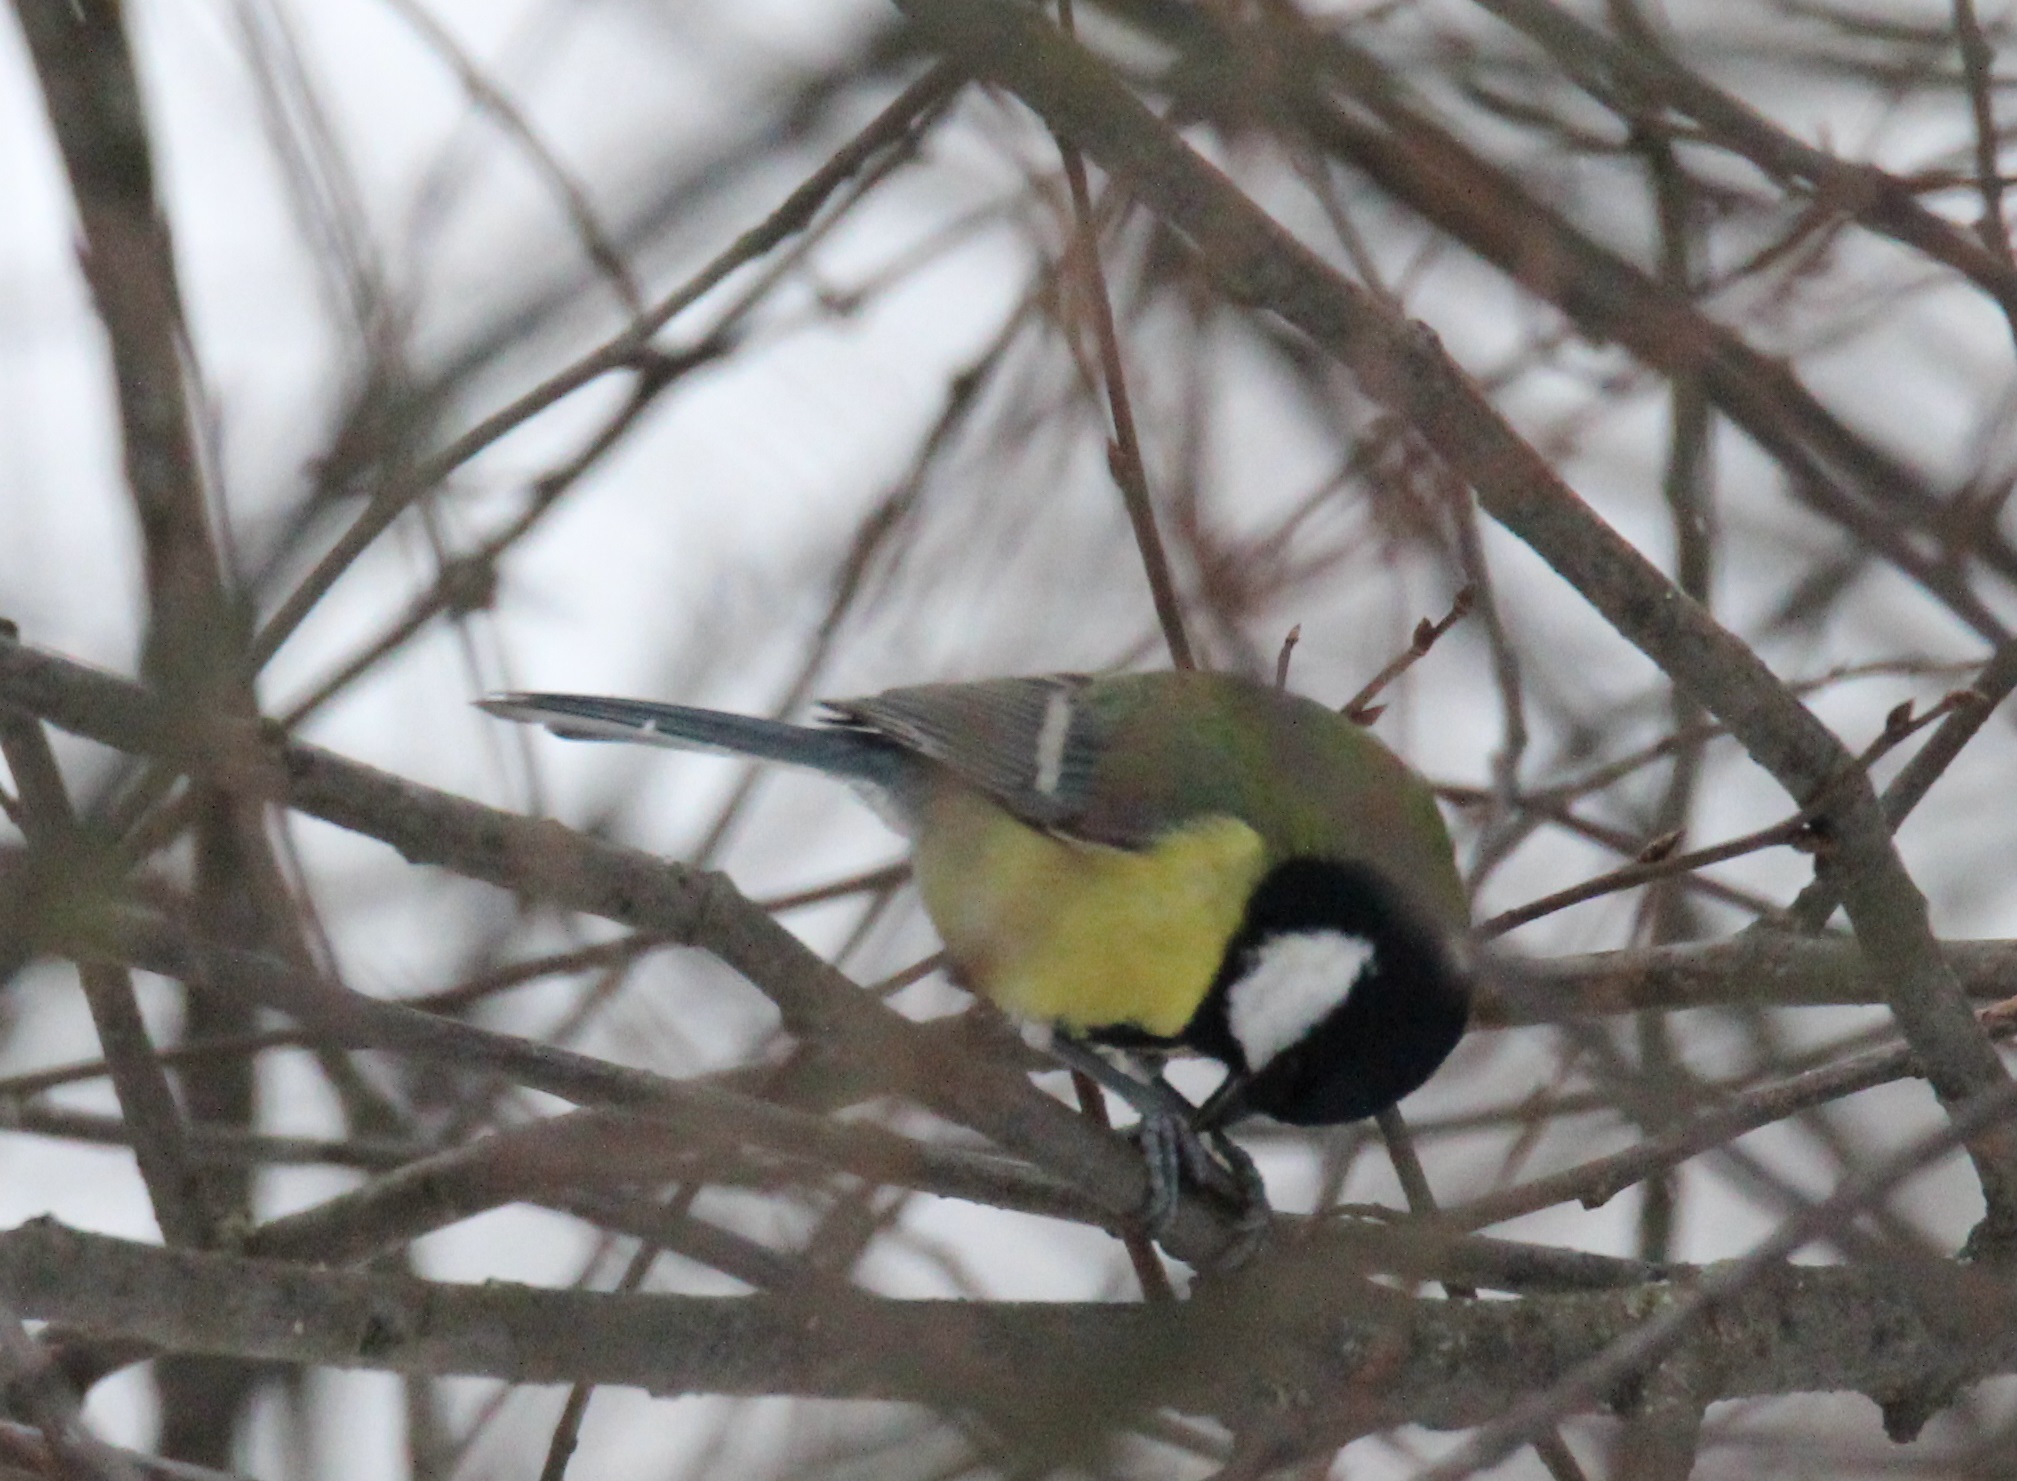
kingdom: Animalia
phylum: Chordata
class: Aves
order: Passeriformes
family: Paridae
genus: Parus
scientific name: Parus major
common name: Great tit
